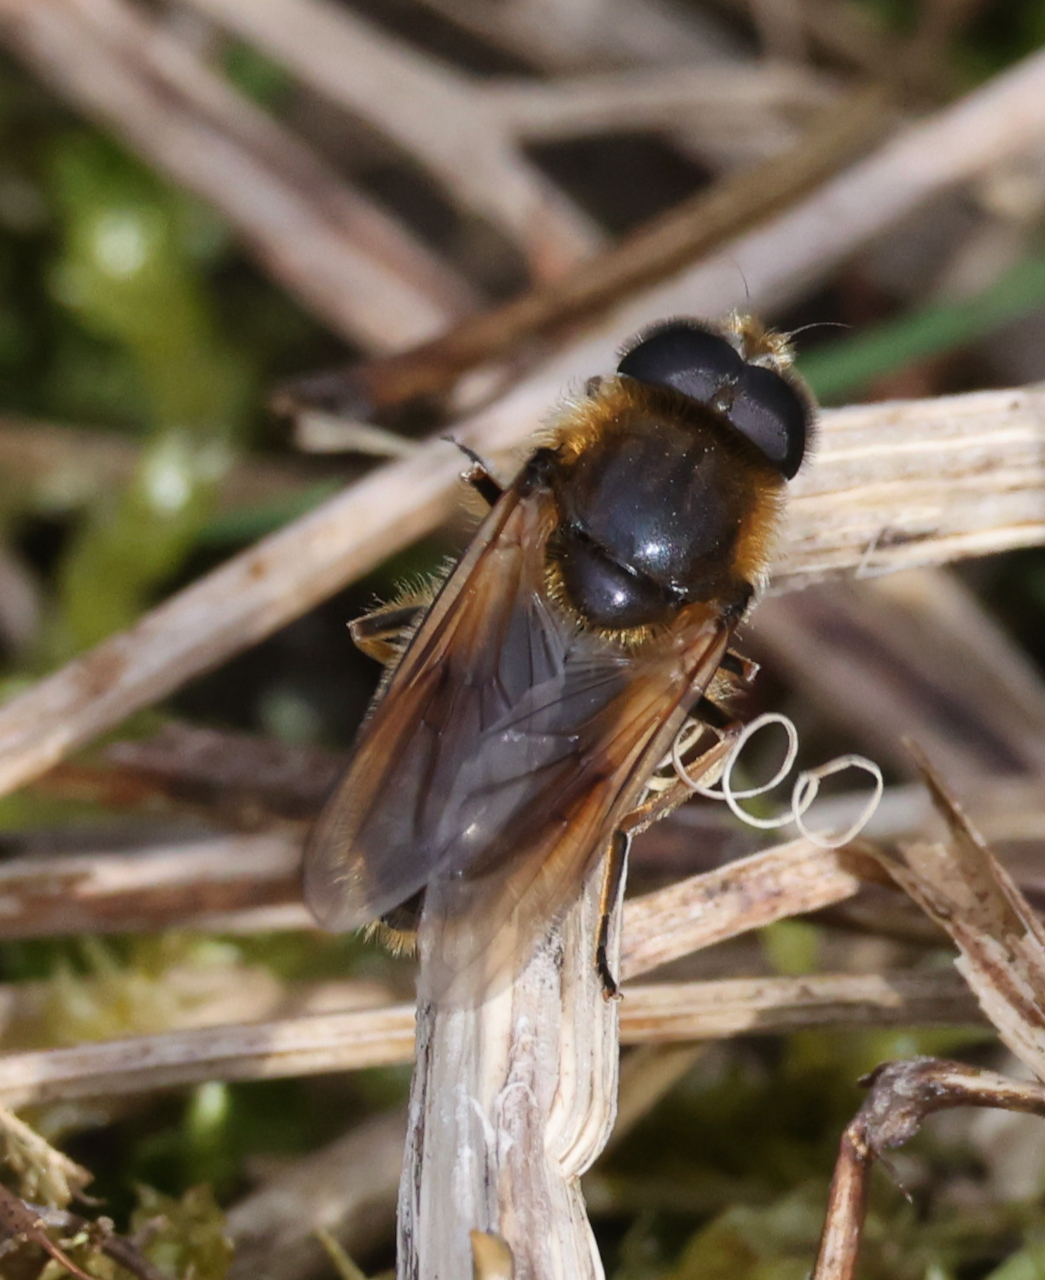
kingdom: Animalia
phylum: Arthropoda
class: Insecta
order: Diptera
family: Syrphidae
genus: Cheilosia
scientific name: Cheilosia corydon
